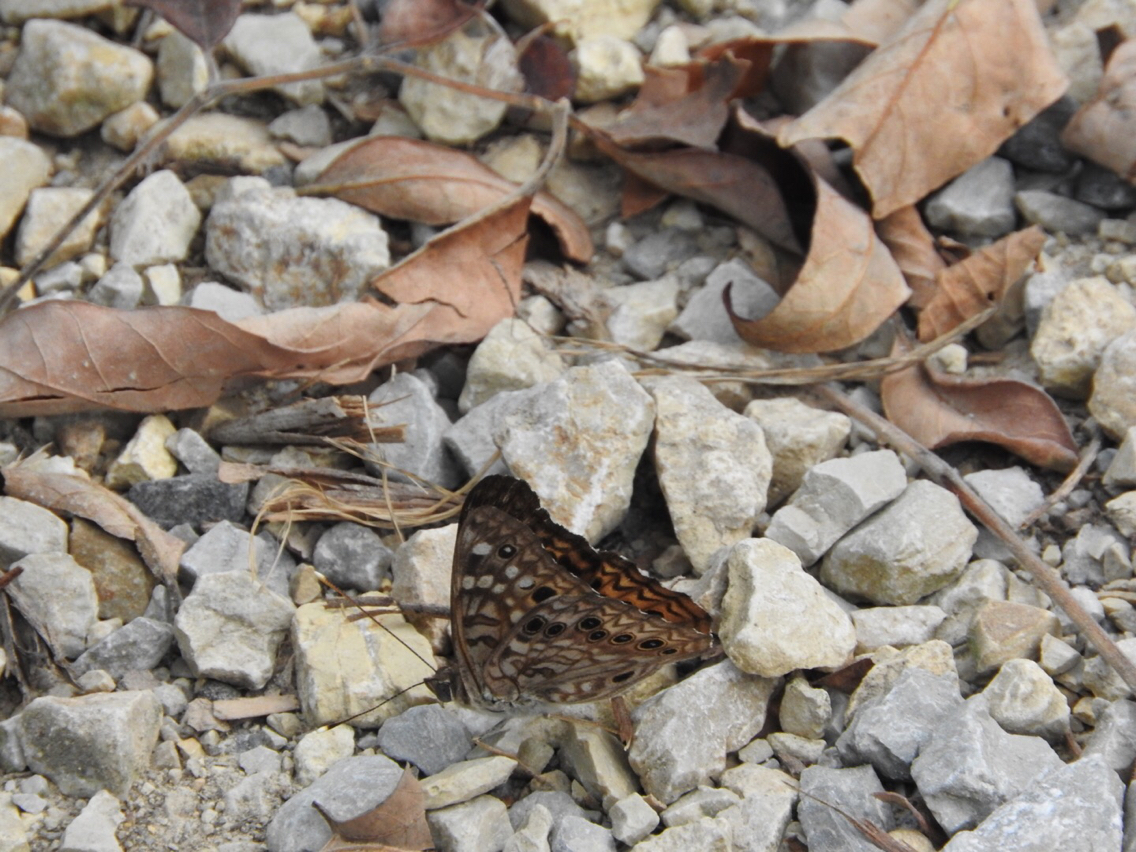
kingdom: Animalia
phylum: Arthropoda
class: Insecta
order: Lepidoptera
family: Nymphalidae
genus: Asterocampa
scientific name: Asterocampa celtis
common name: Hackberry emperor
